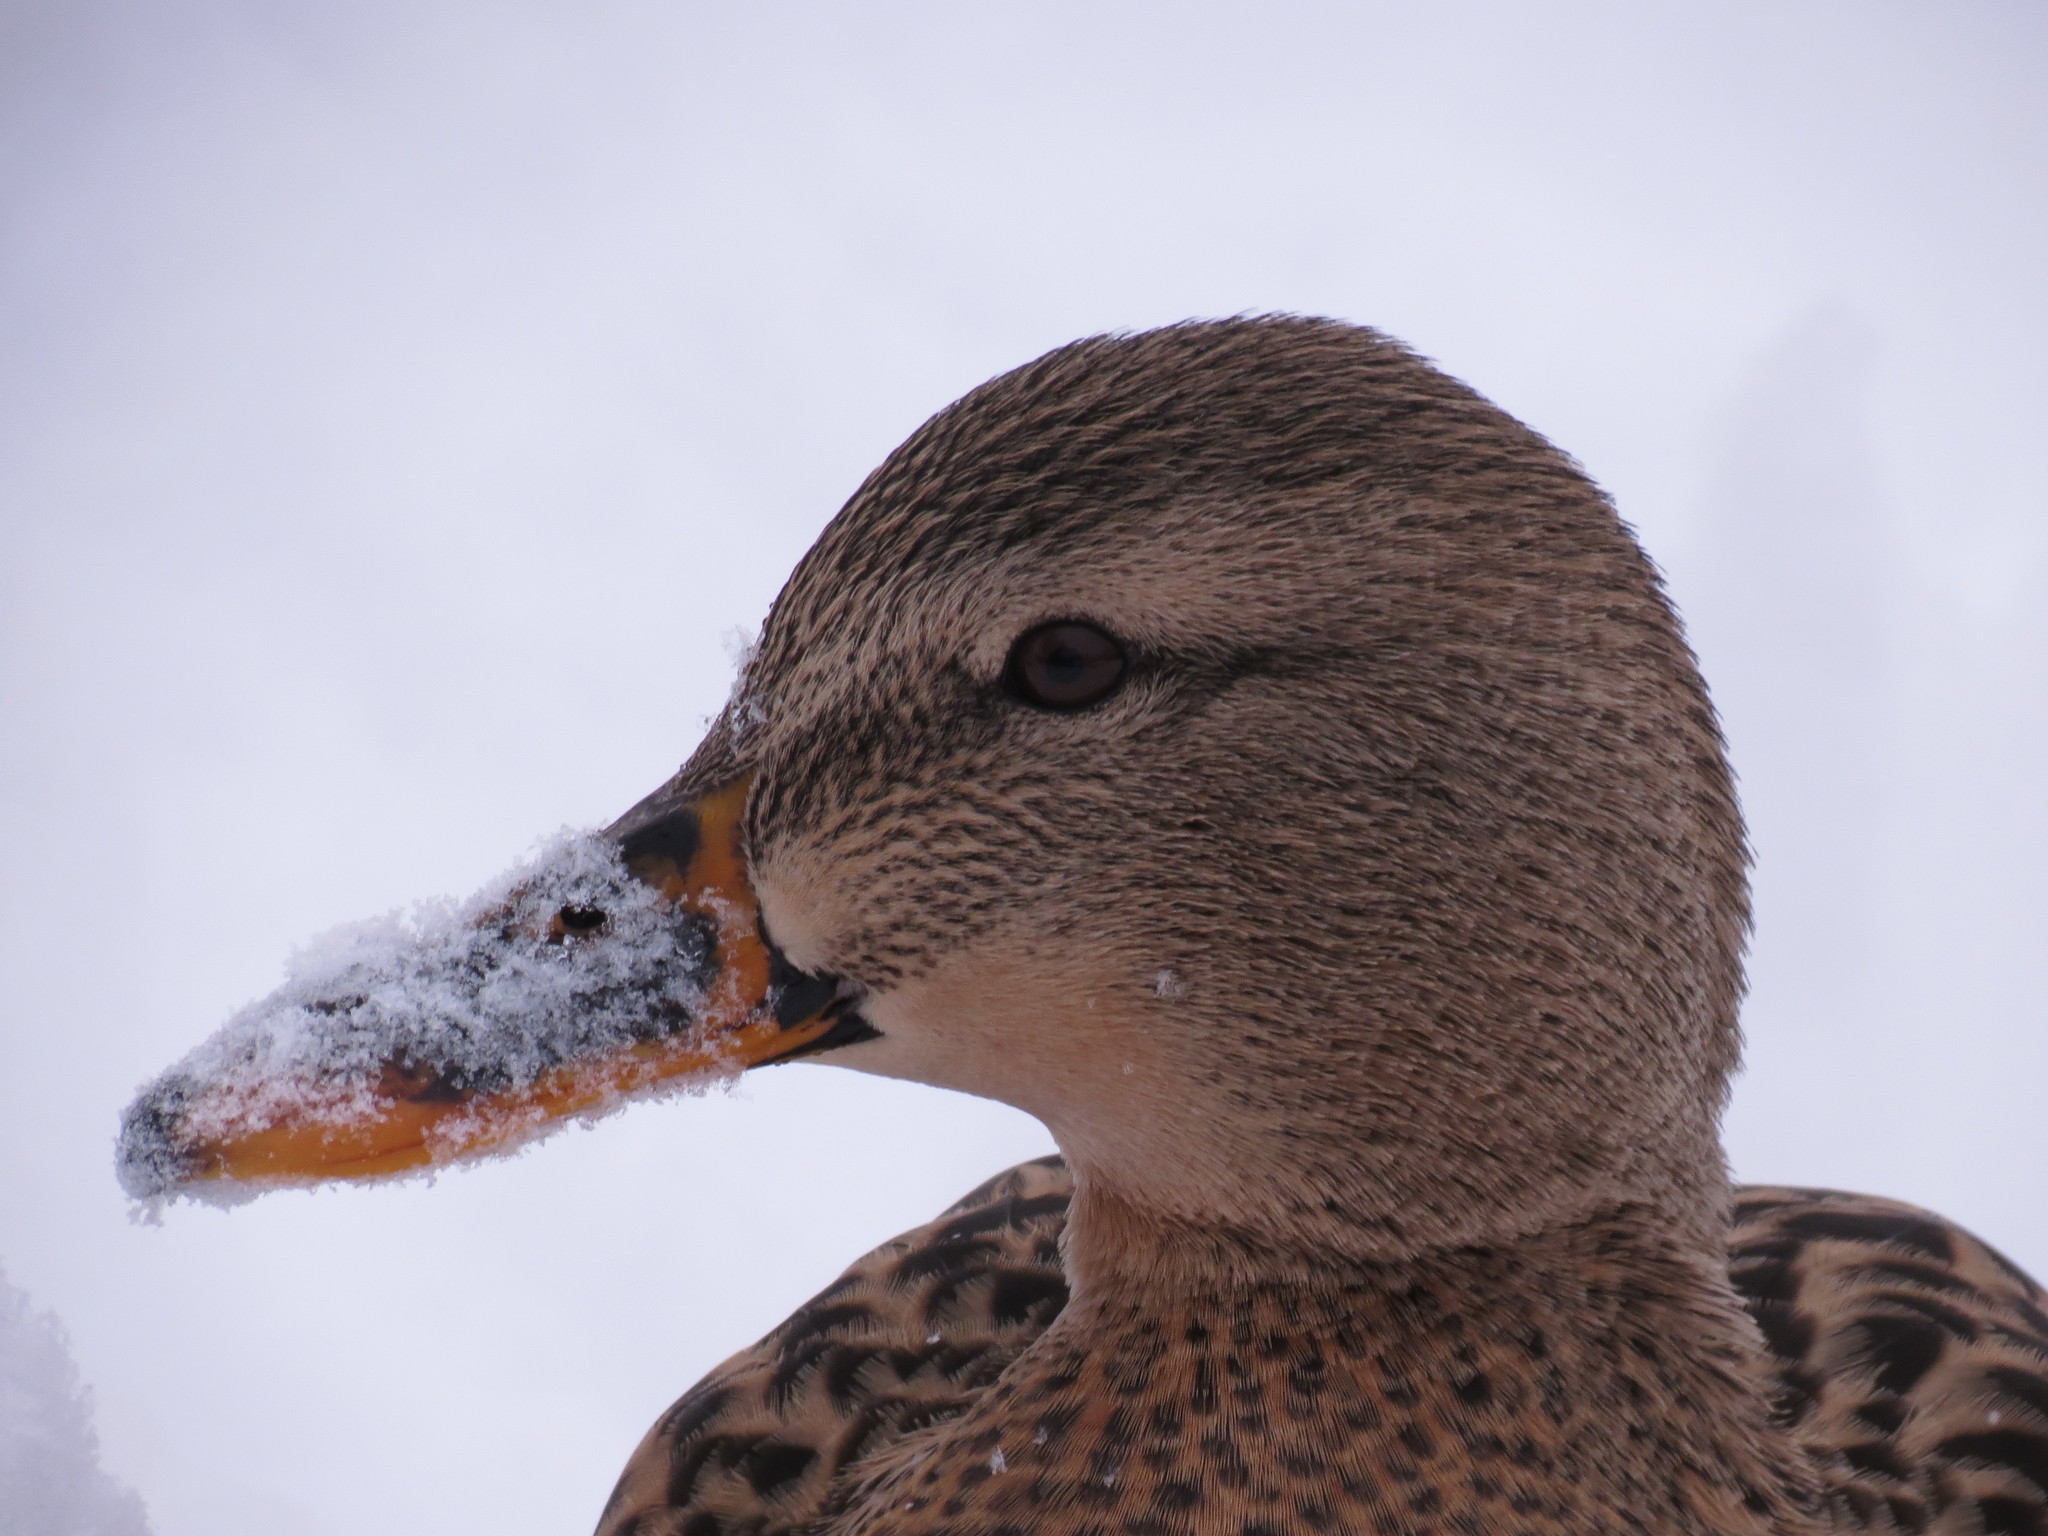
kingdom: Animalia
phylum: Chordata
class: Aves
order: Anseriformes
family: Anatidae
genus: Anas
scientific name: Anas platyrhynchos
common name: Mallard
